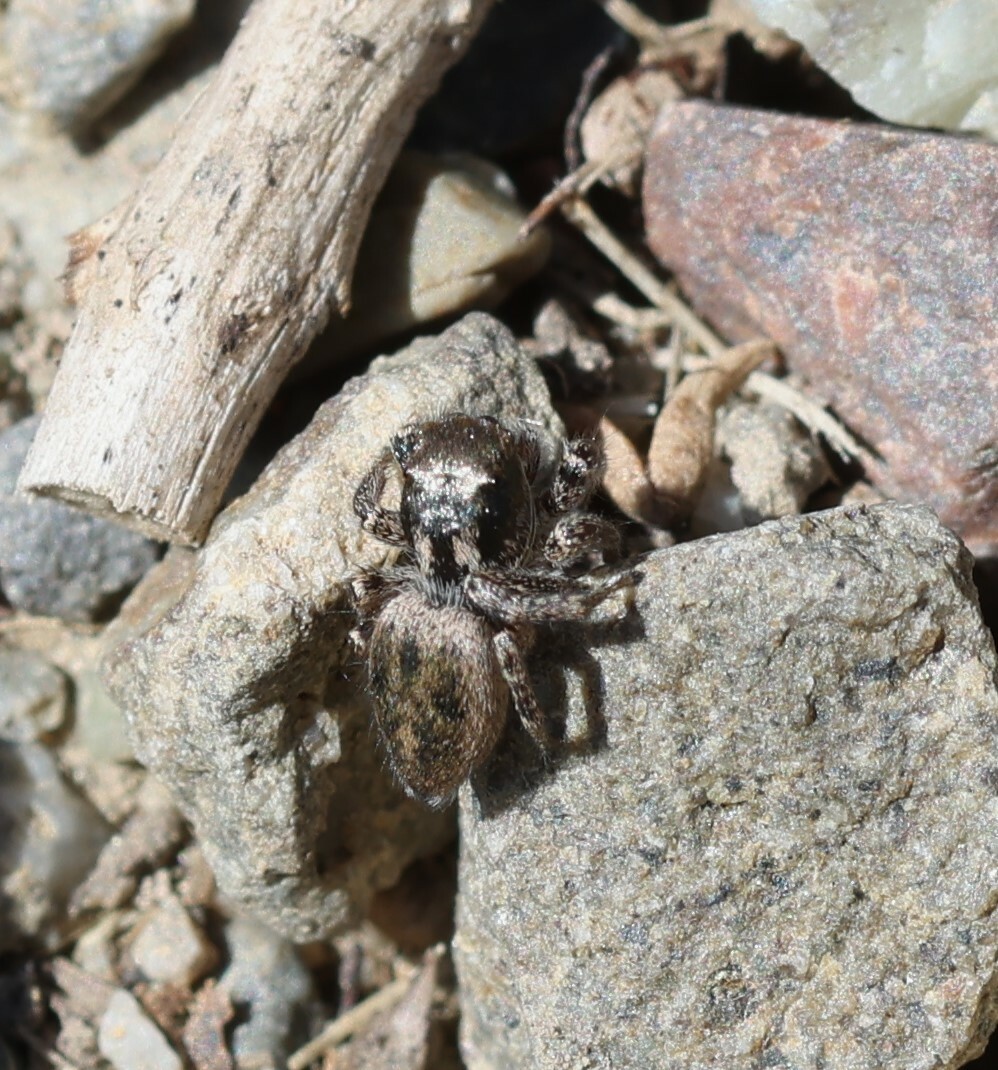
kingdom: Animalia
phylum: Arthropoda
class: Arachnida
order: Araneae
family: Salticidae
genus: Habronattus
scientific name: Habronattus pyrrithrix
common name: Jumping spider
